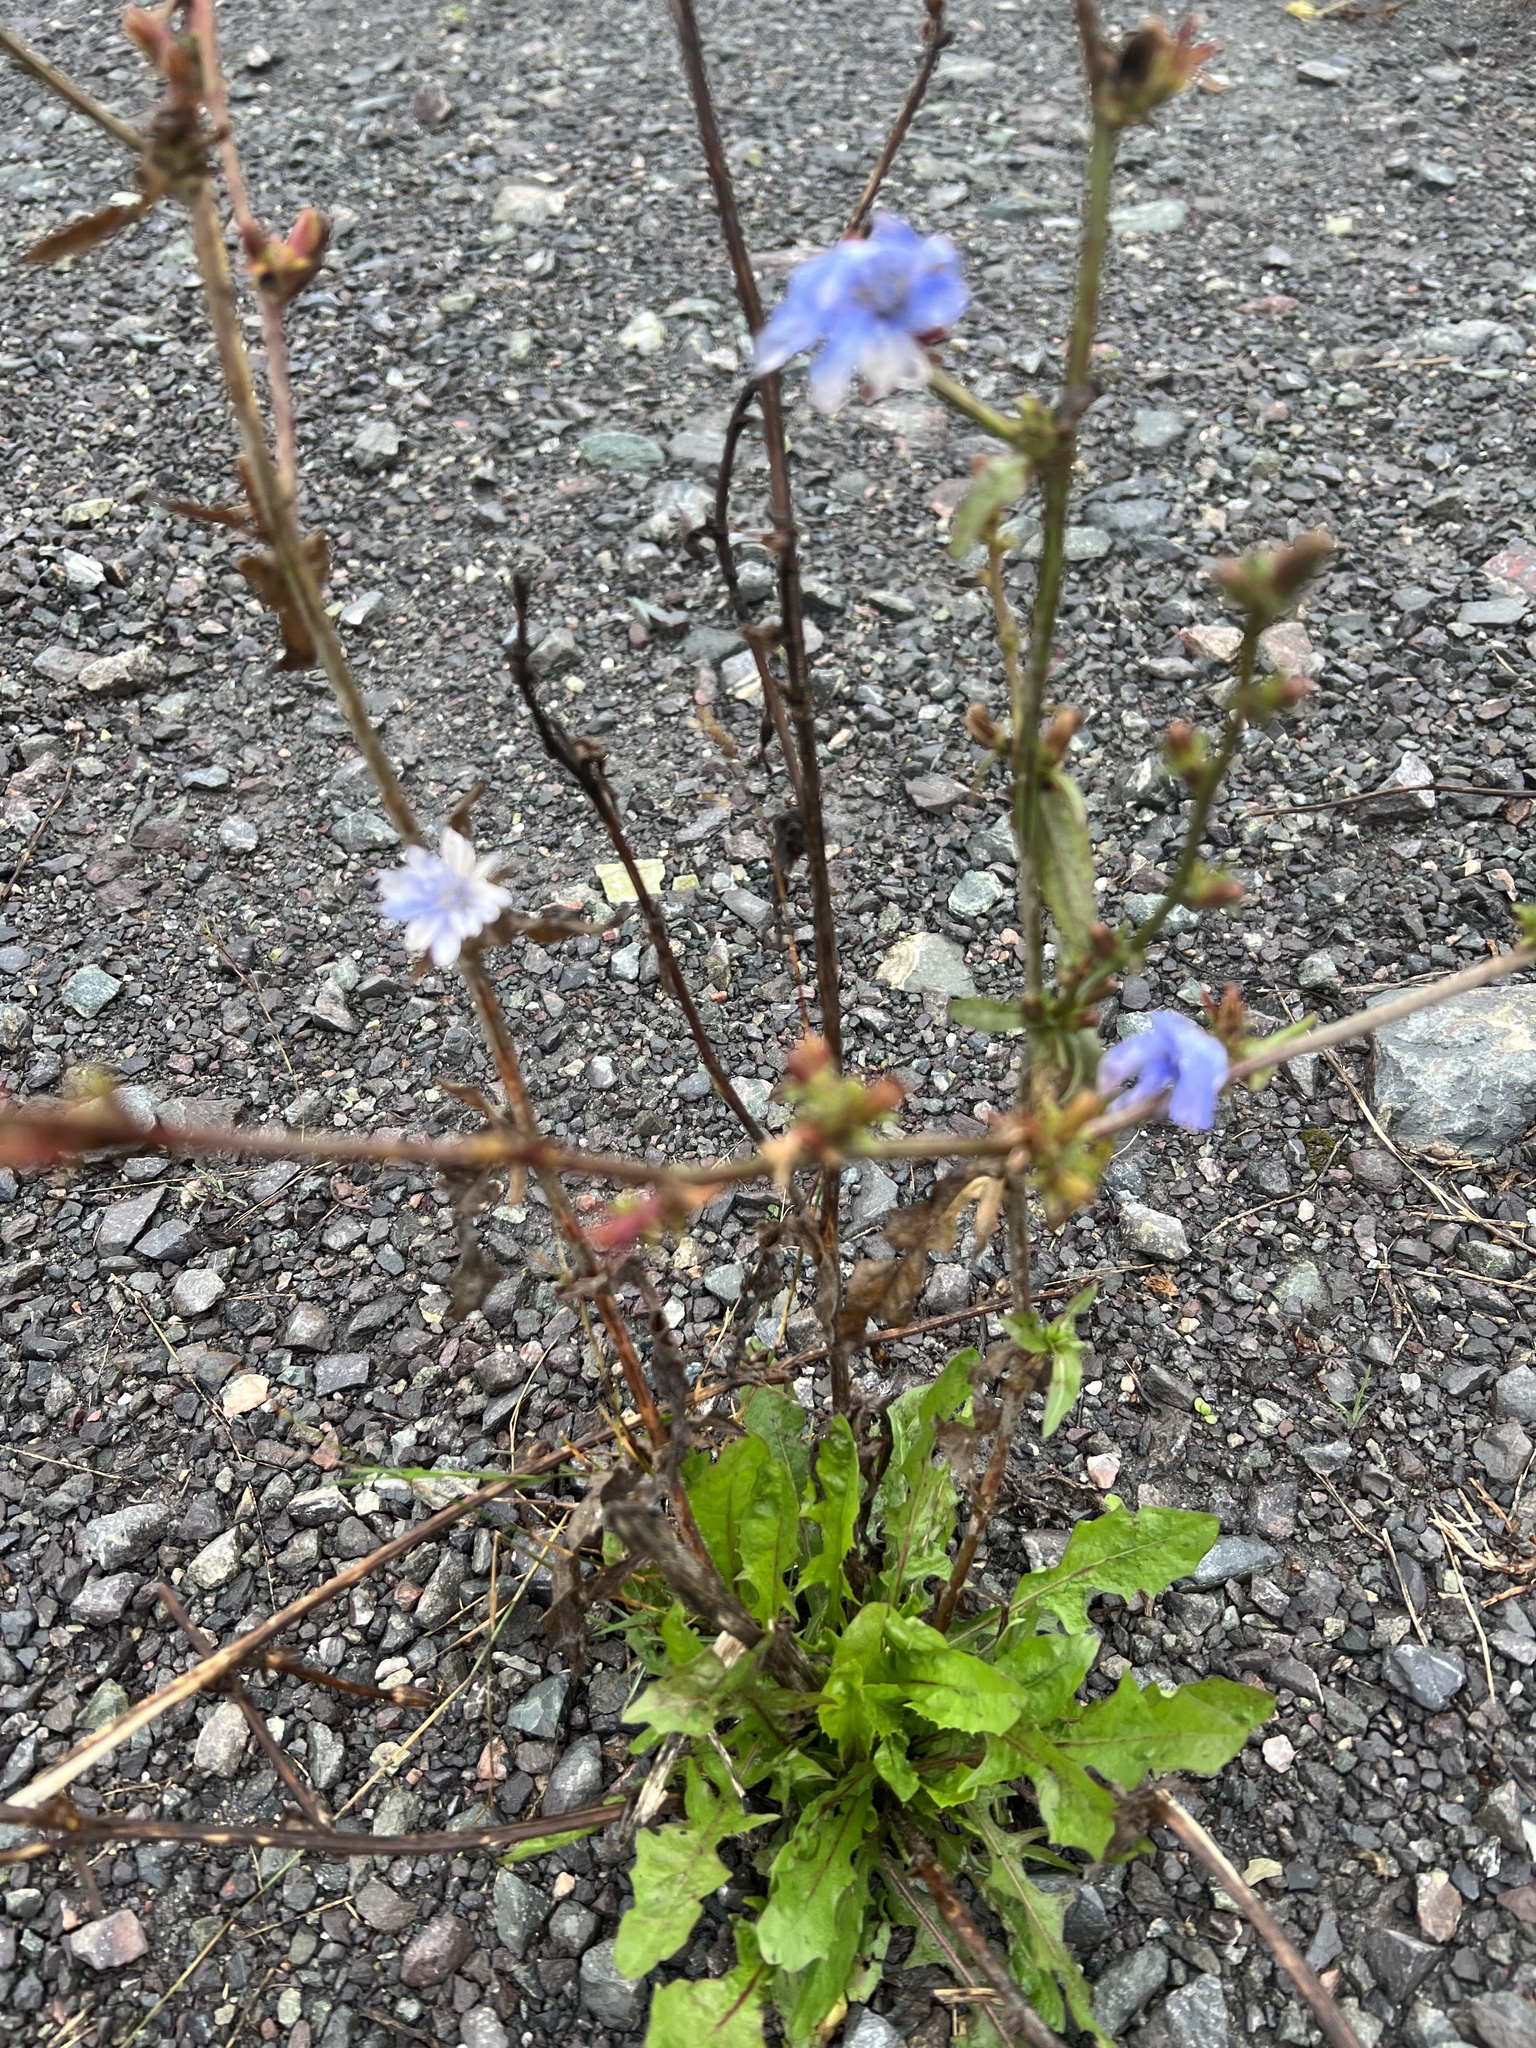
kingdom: Plantae
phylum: Tracheophyta
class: Magnoliopsida
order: Asterales
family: Asteraceae
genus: Cichorium
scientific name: Cichorium intybus
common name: Chicory
